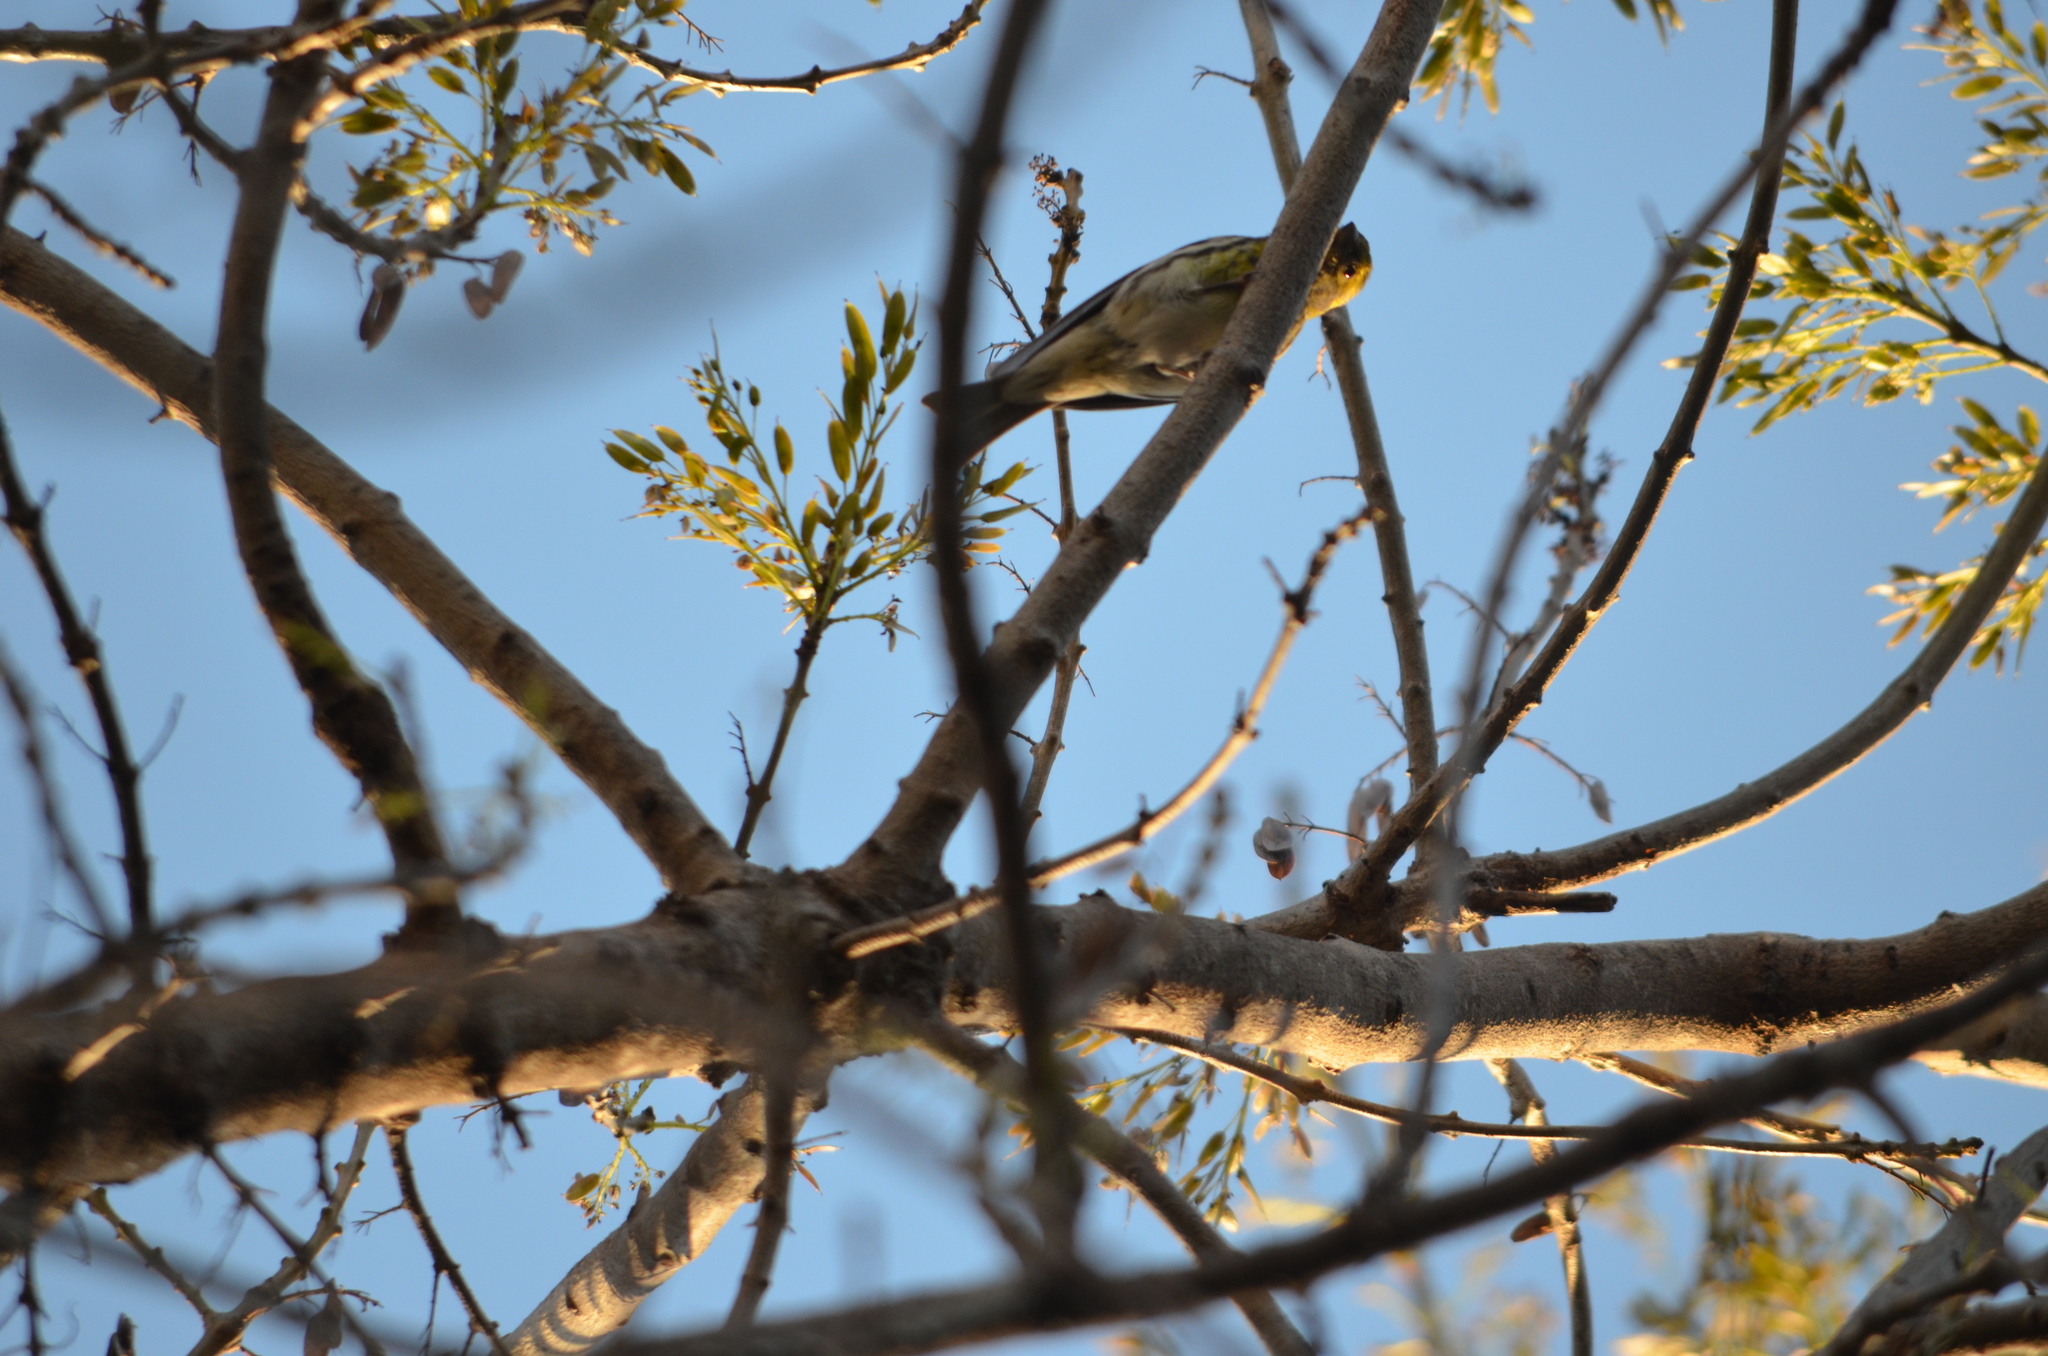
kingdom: Animalia
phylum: Chordata
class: Aves
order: Passeriformes
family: Fringillidae
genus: Serinus
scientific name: Serinus serinus
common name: European serin
